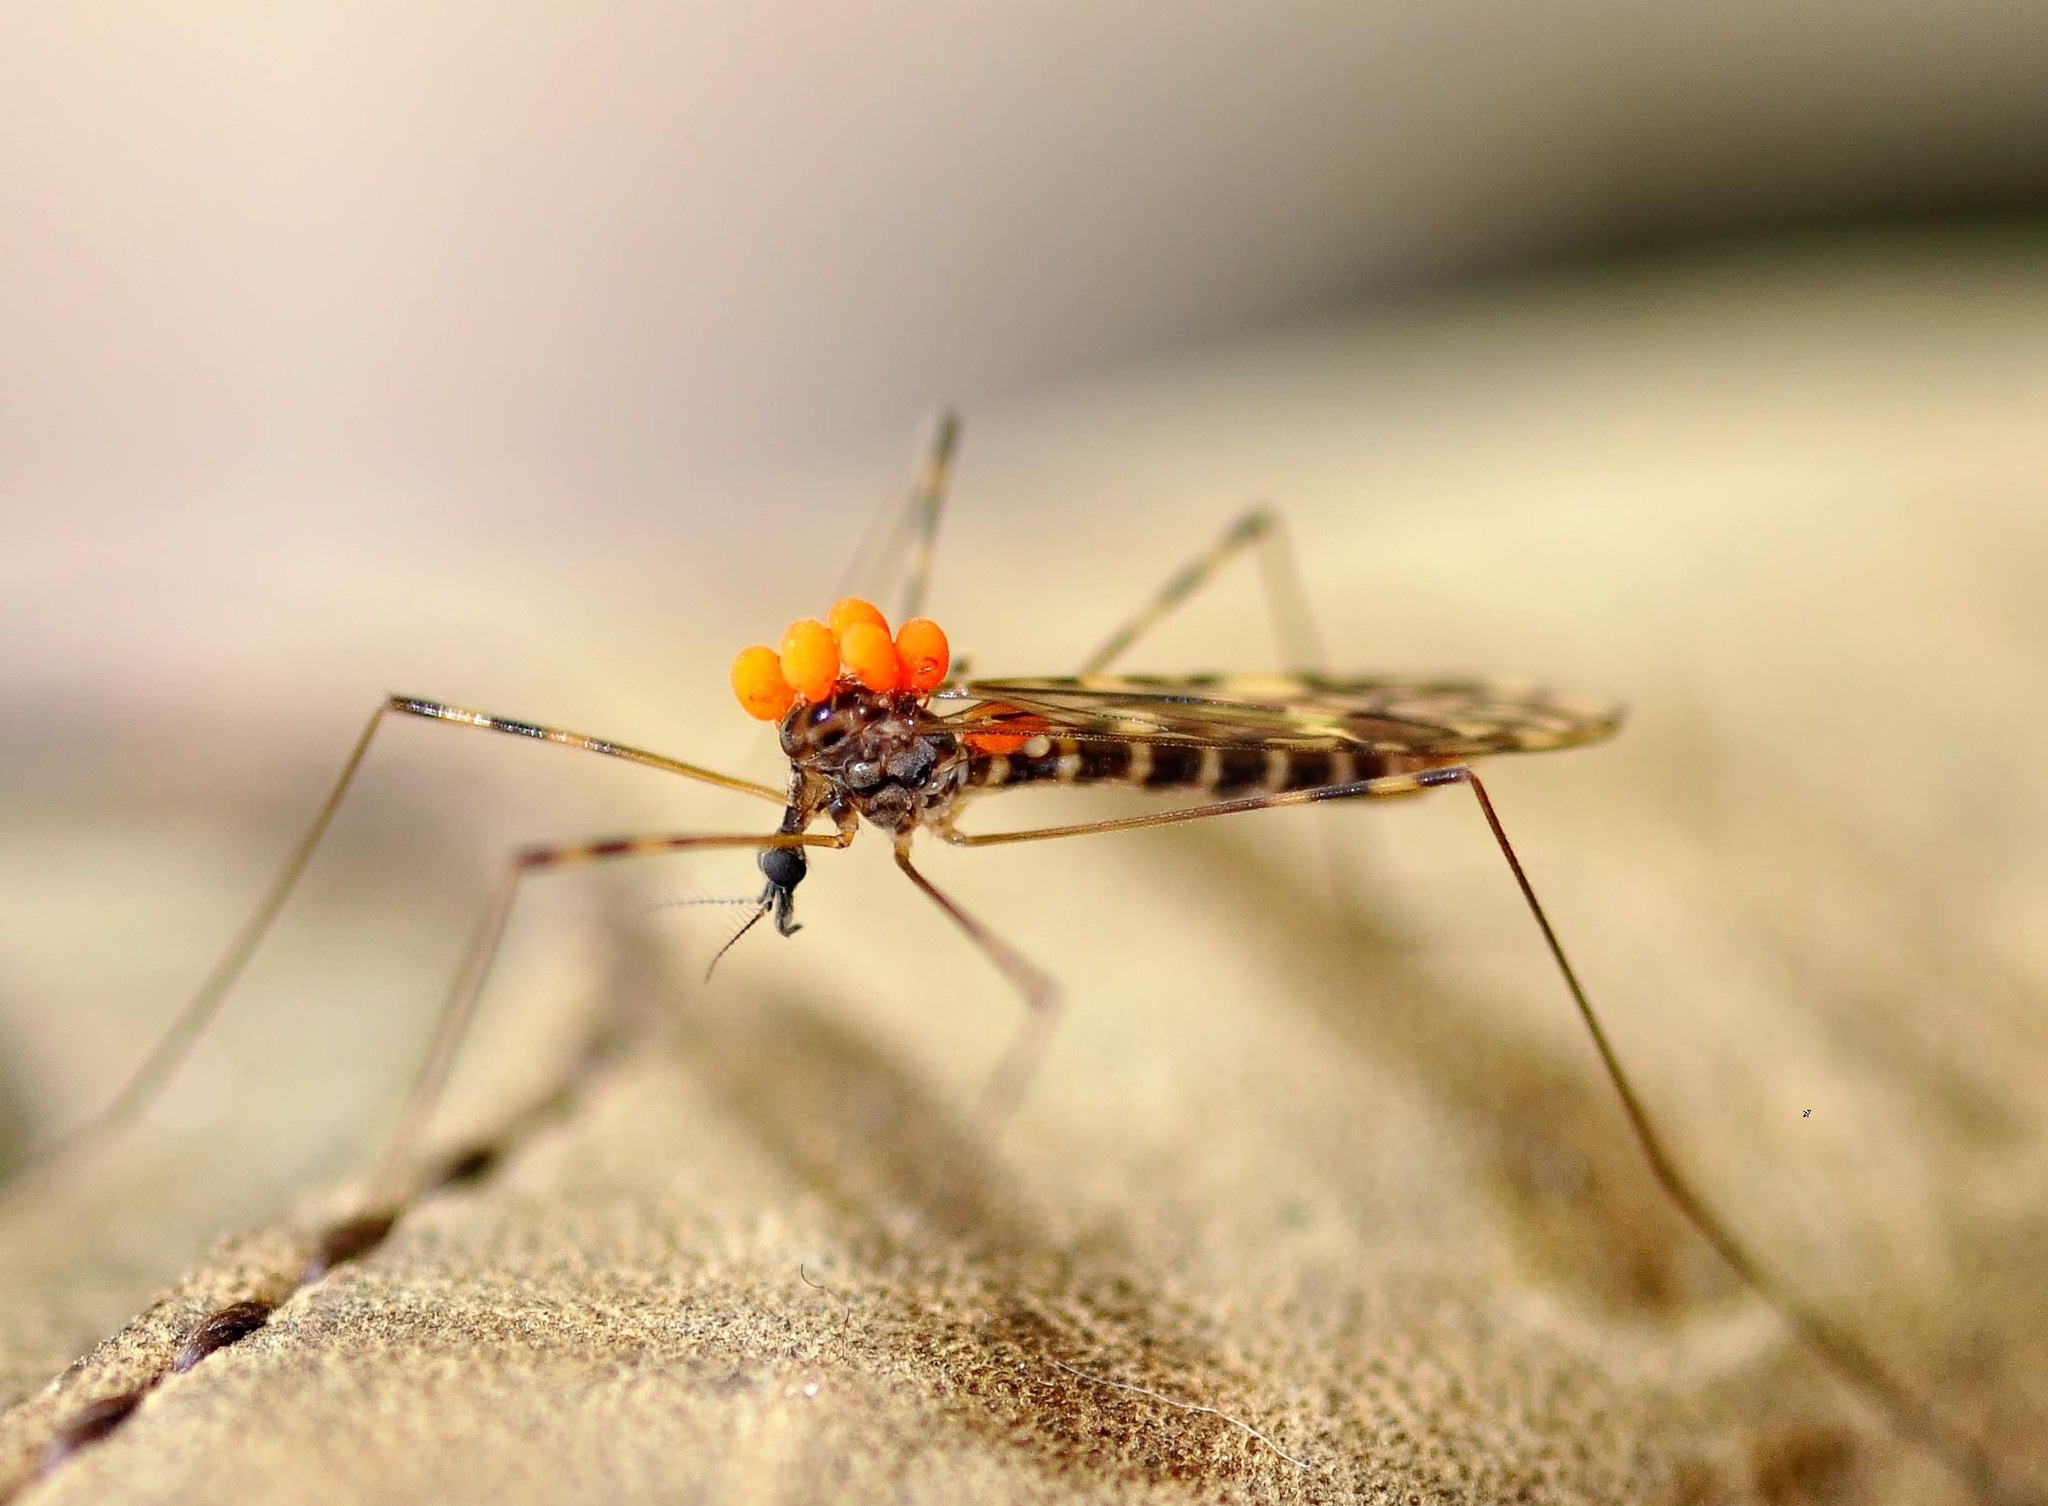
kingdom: Animalia
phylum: Arthropoda
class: Insecta
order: Diptera
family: Limoniidae
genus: Limonia
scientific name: Limonia nubeculosa
